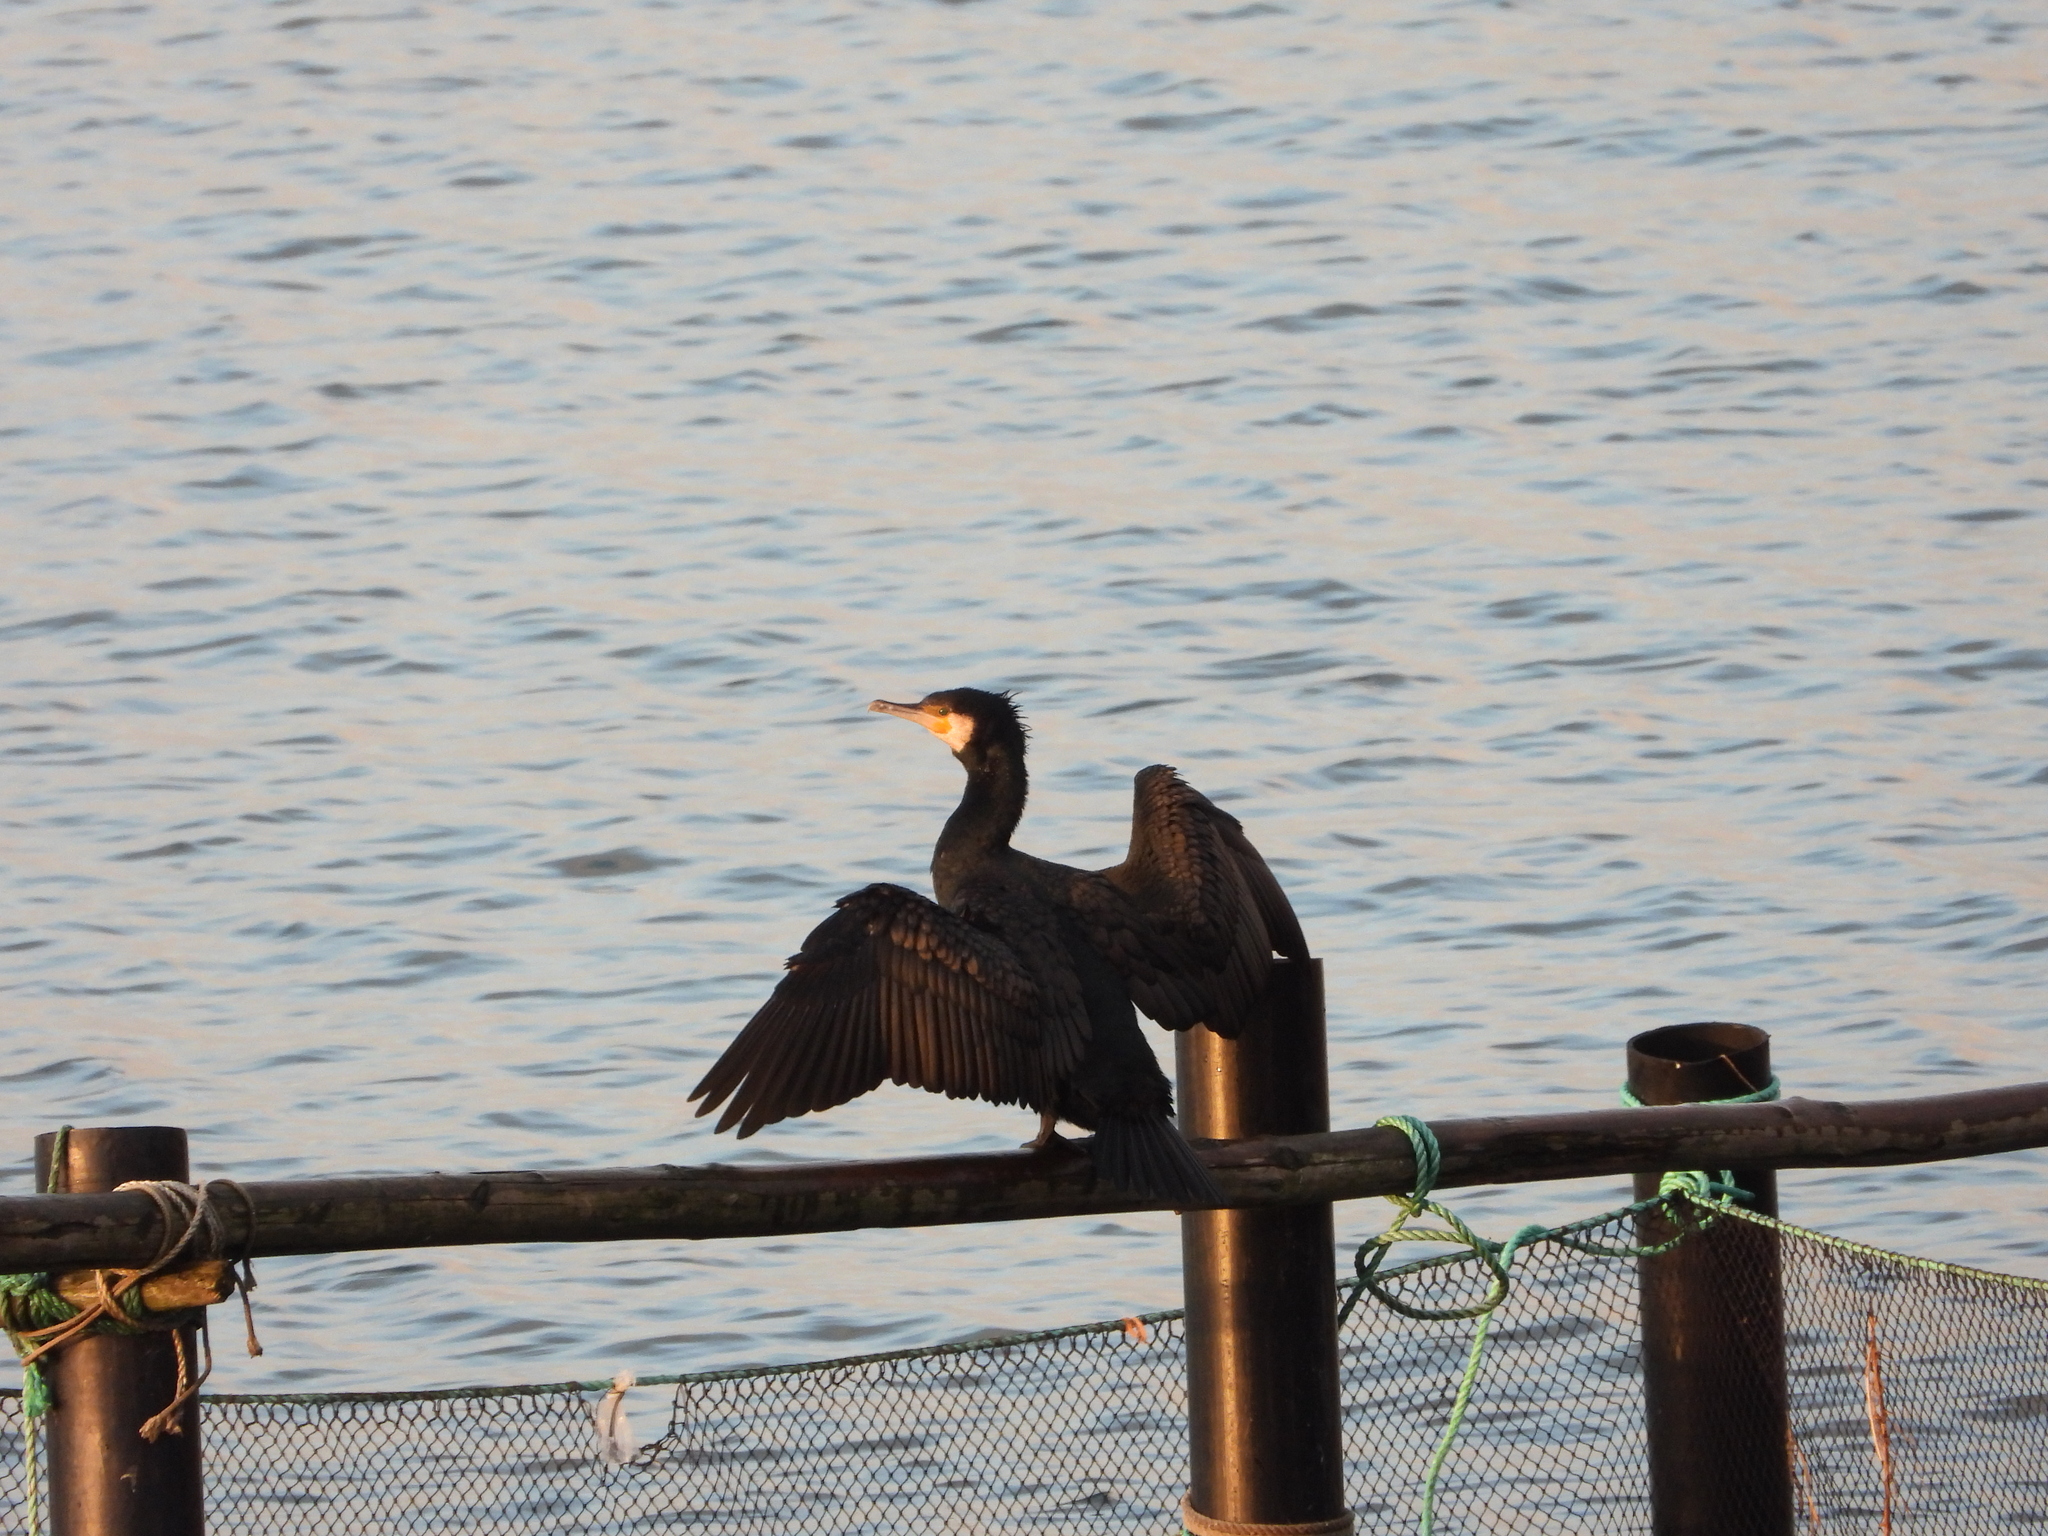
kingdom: Animalia
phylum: Chordata
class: Aves
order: Suliformes
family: Phalacrocoracidae
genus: Phalacrocorax
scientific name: Phalacrocorax carbo
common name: Great cormorant
